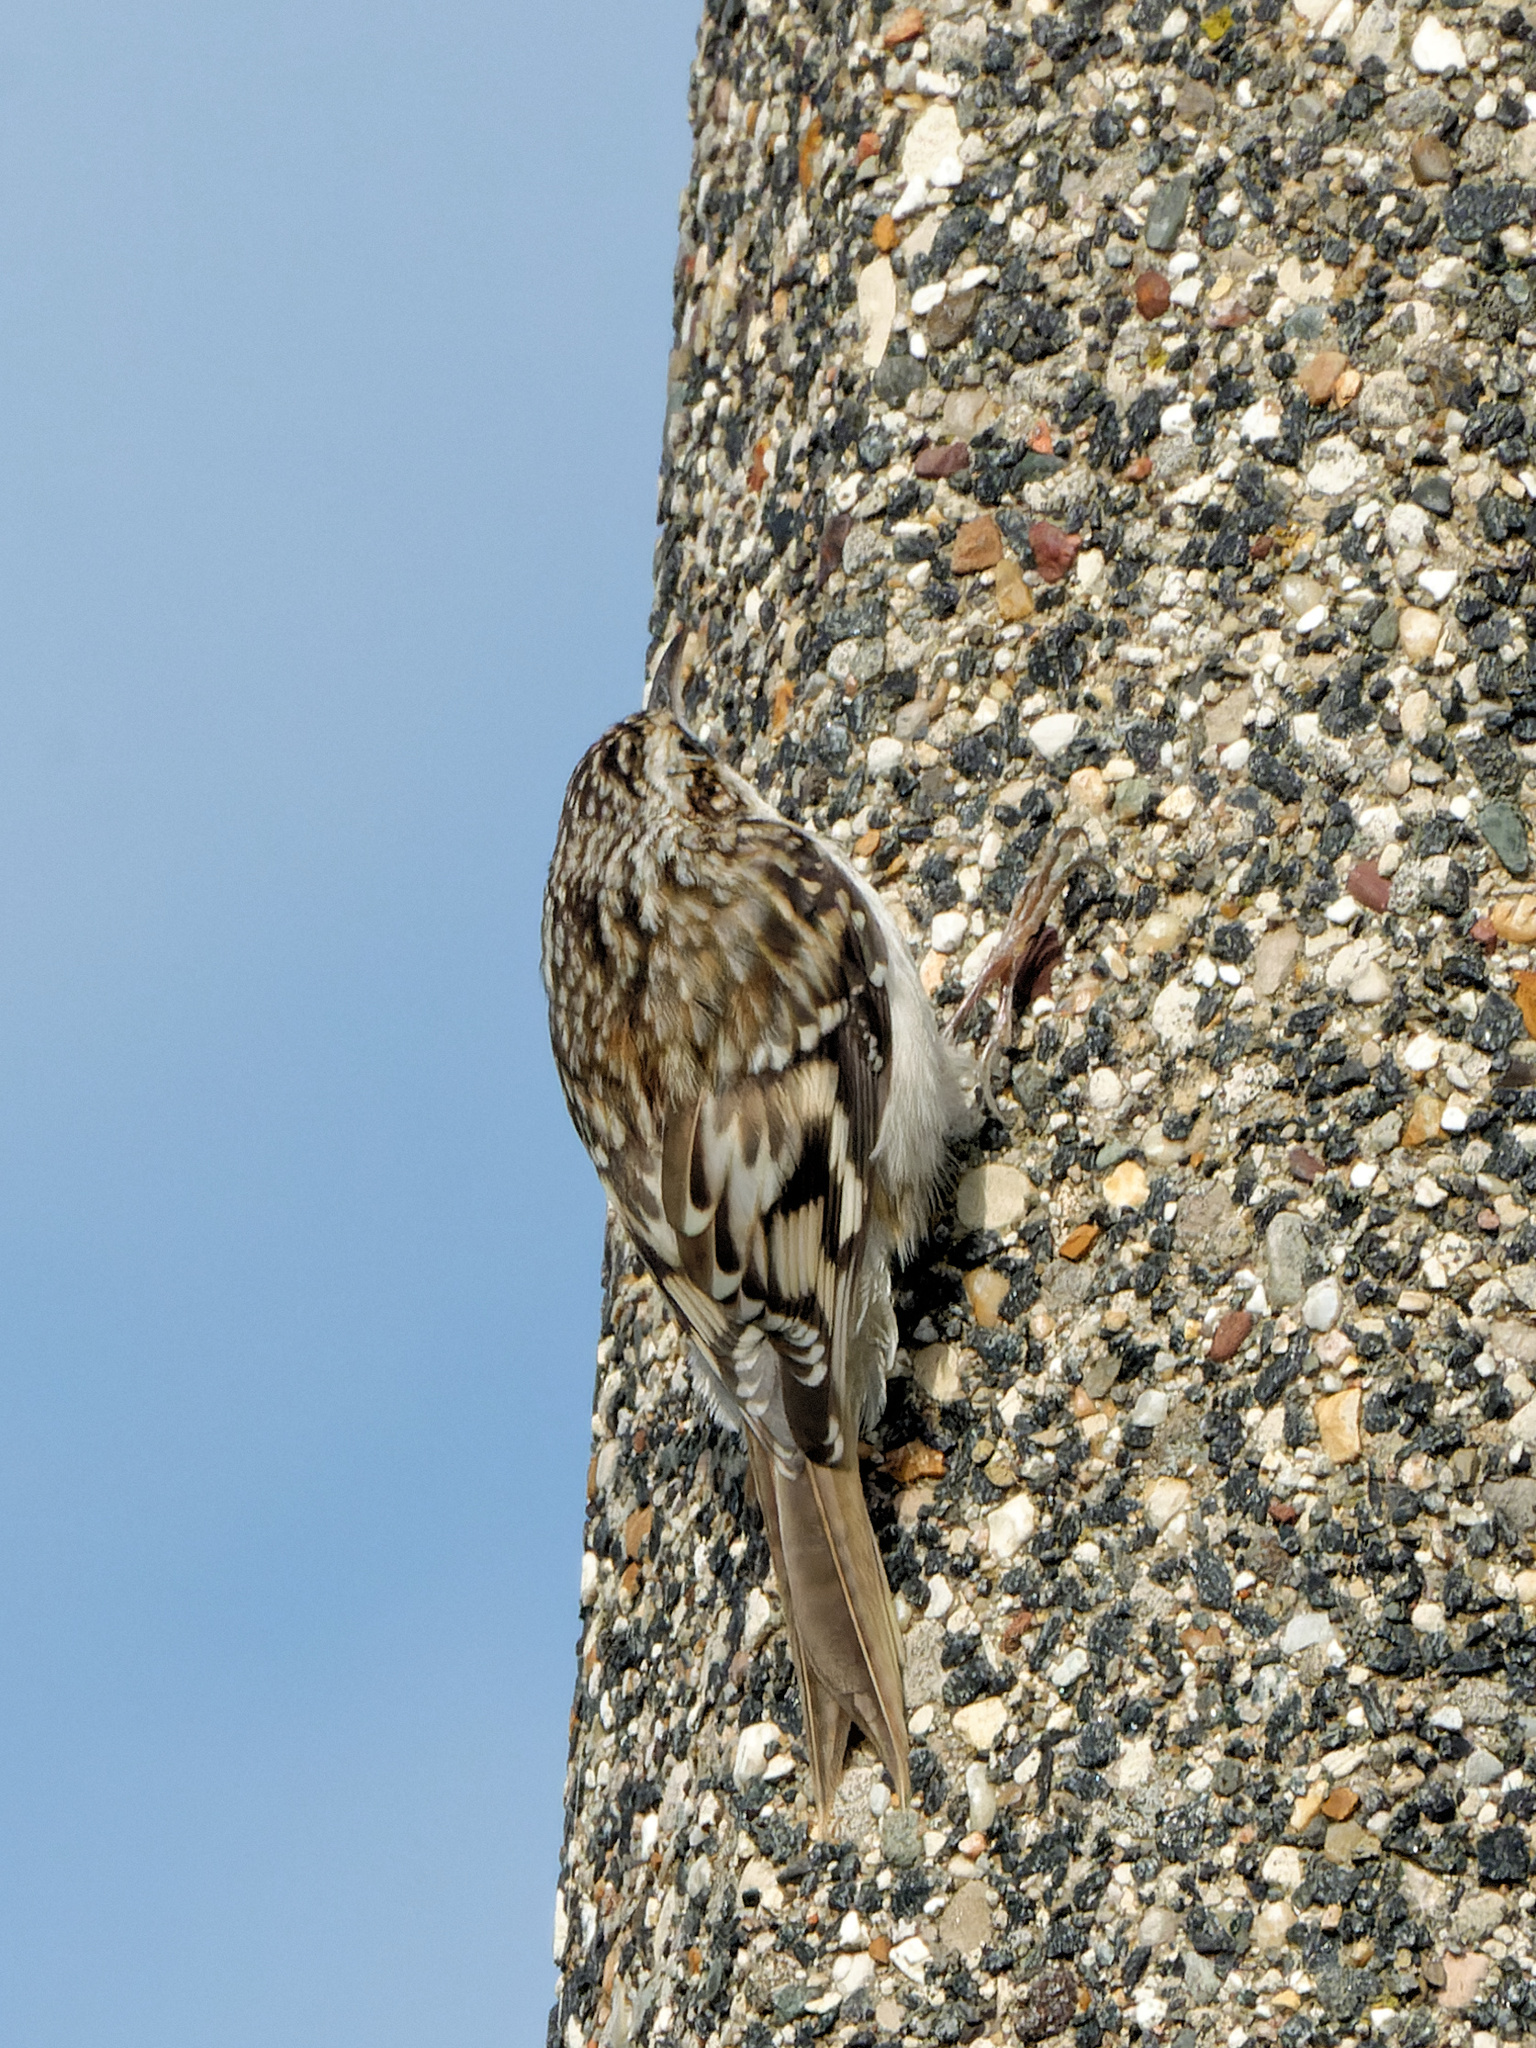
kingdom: Animalia
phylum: Chordata
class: Aves
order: Passeriformes
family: Certhiidae
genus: Certhia
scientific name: Certhia americana
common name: Brown creeper
